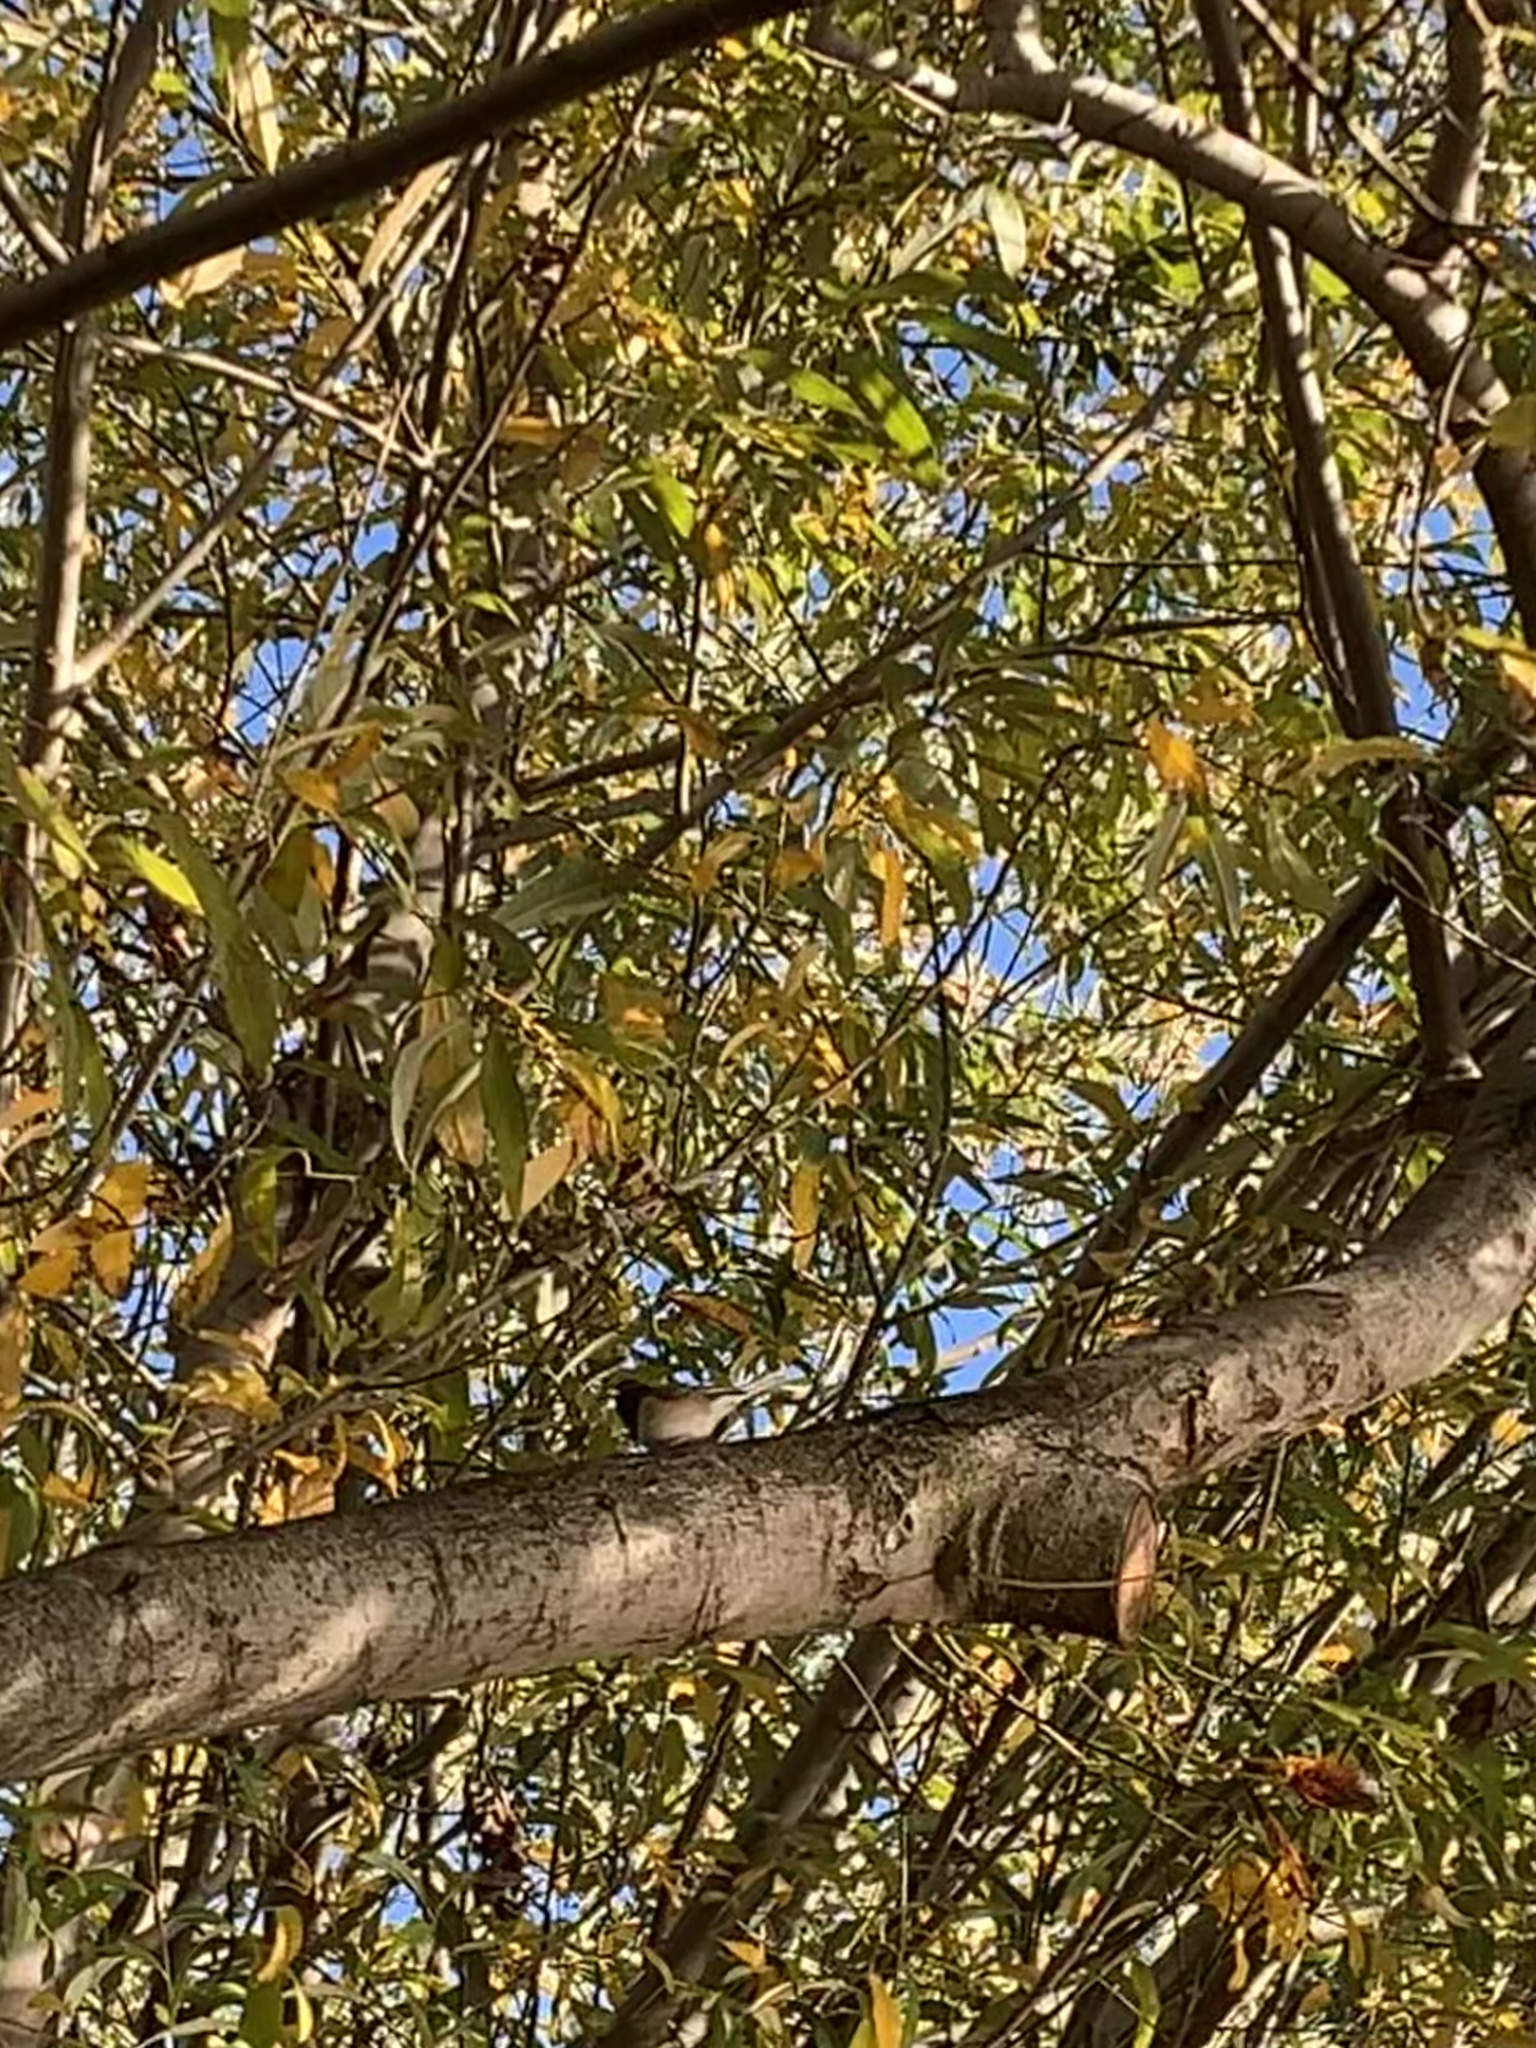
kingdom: Animalia
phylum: Chordata
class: Aves
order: Passeriformes
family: Passerellidae
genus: Junco
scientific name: Junco hyemalis
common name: Dark-eyed junco
